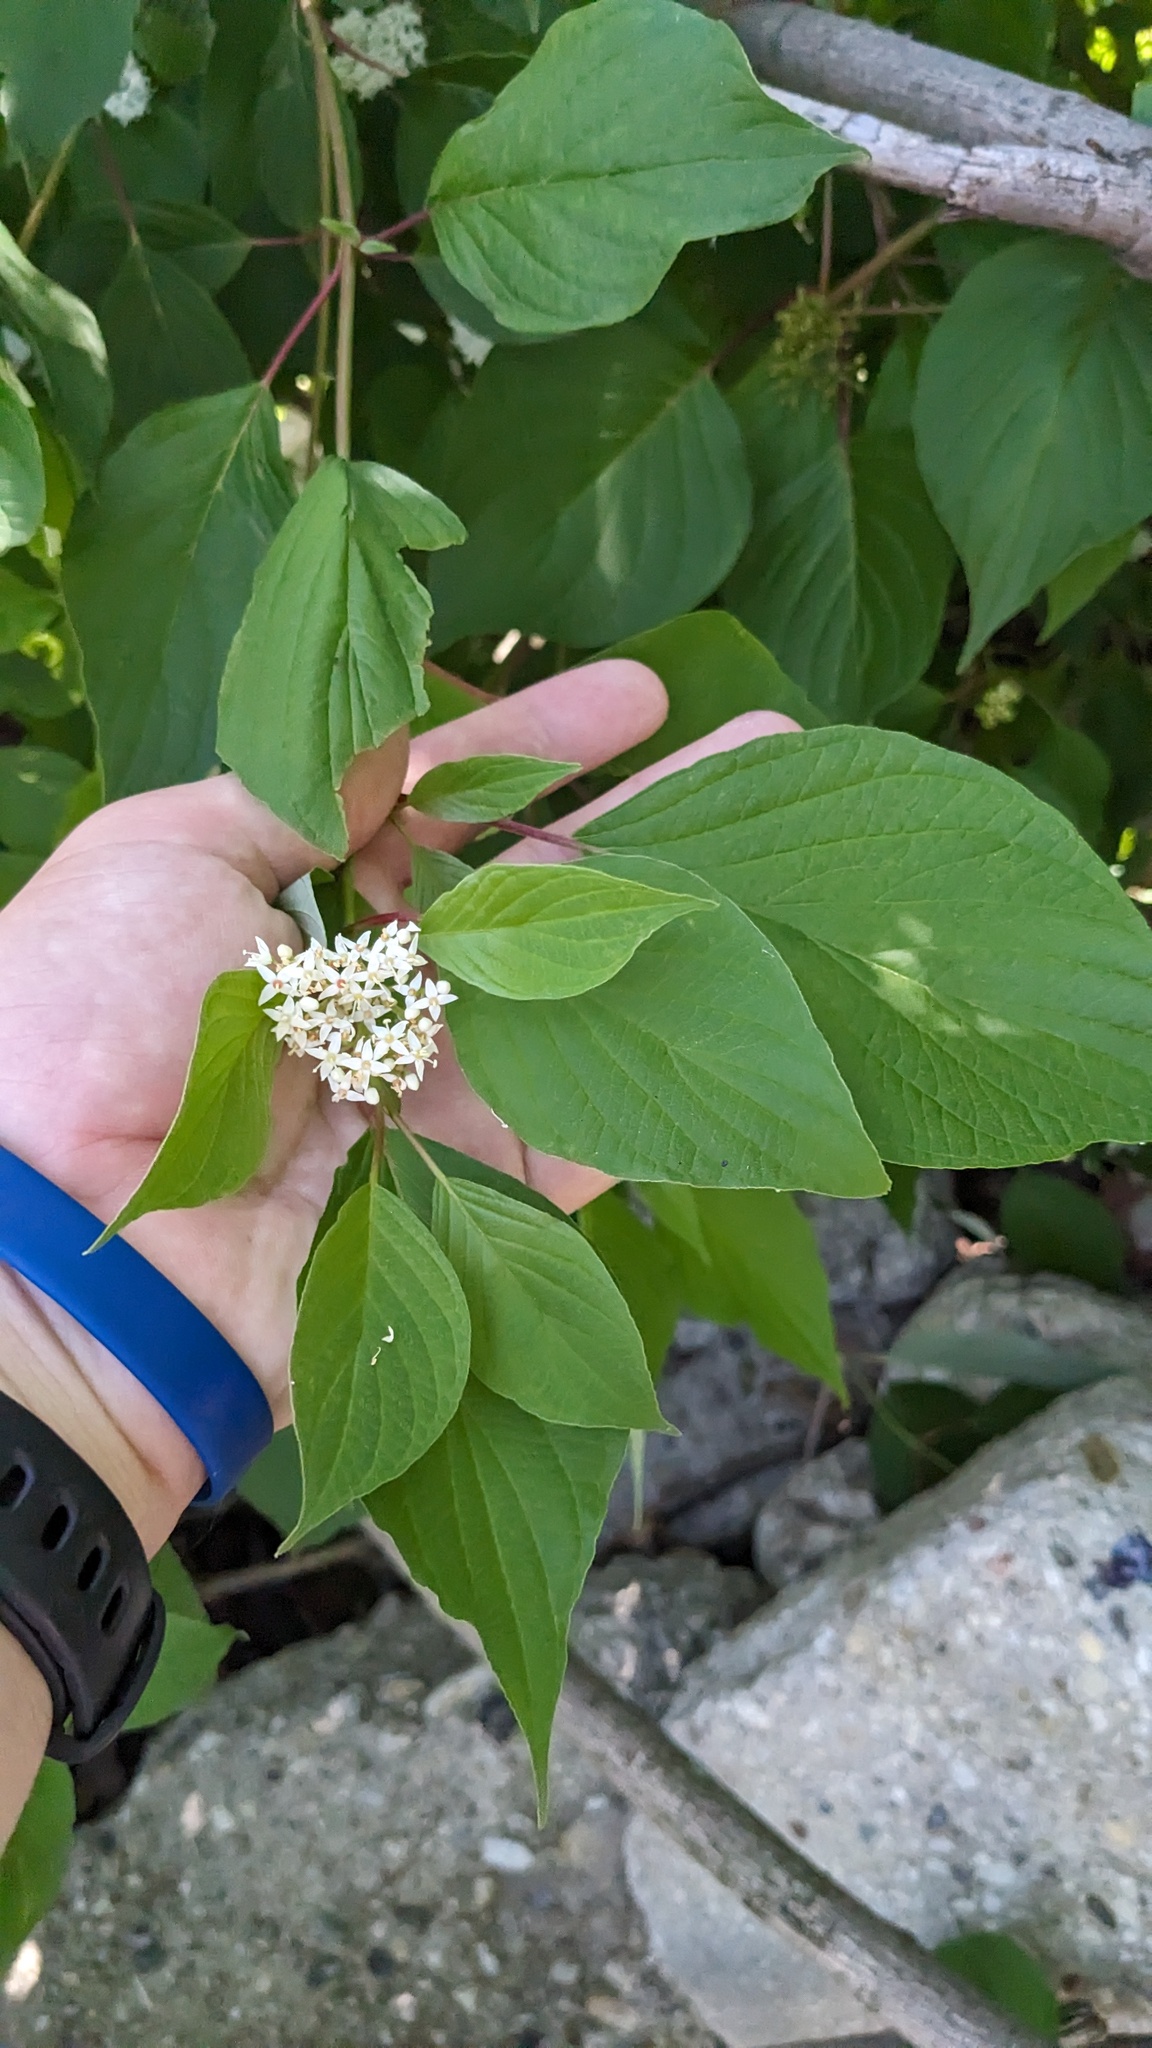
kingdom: Plantae
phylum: Tracheophyta
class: Magnoliopsida
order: Cornales
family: Cornaceae
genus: Cornus
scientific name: Cornus sericea
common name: Red-osier dogwood
